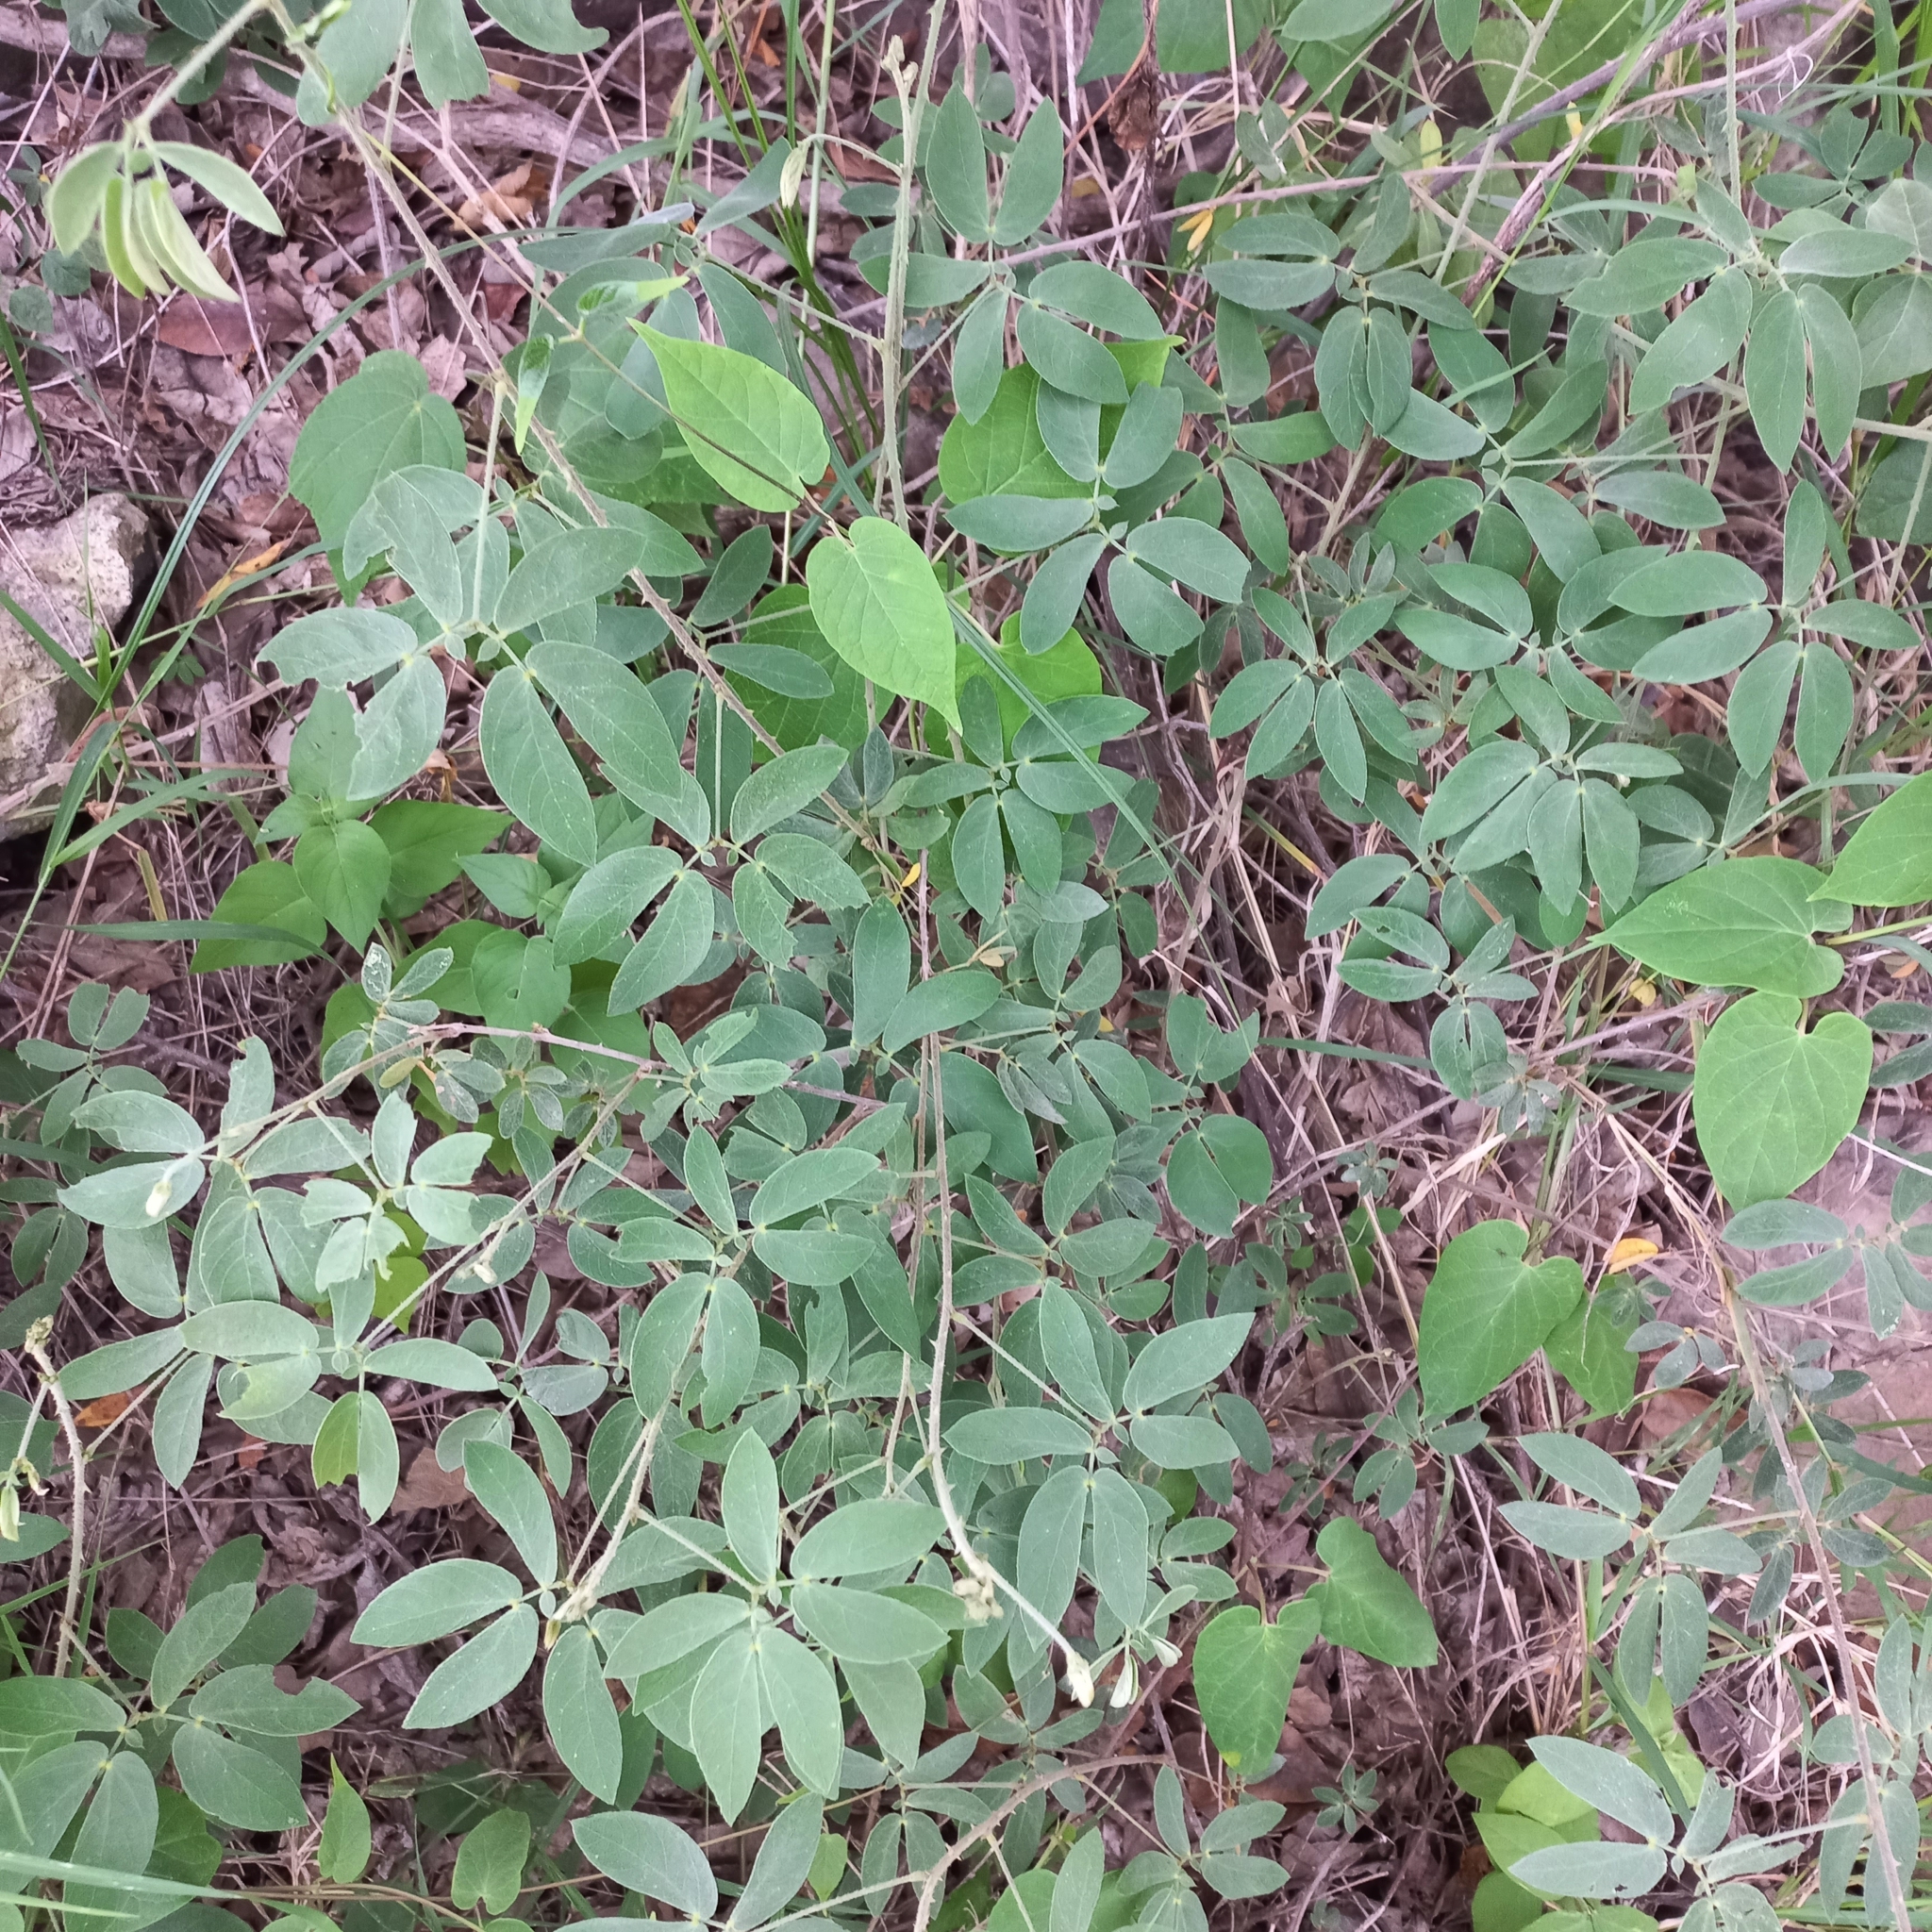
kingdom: Plantae
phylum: Tracheophyta
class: Magnoliopsida
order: Fabales
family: Fabaceae
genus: Mimosa
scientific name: Mimosa albida
